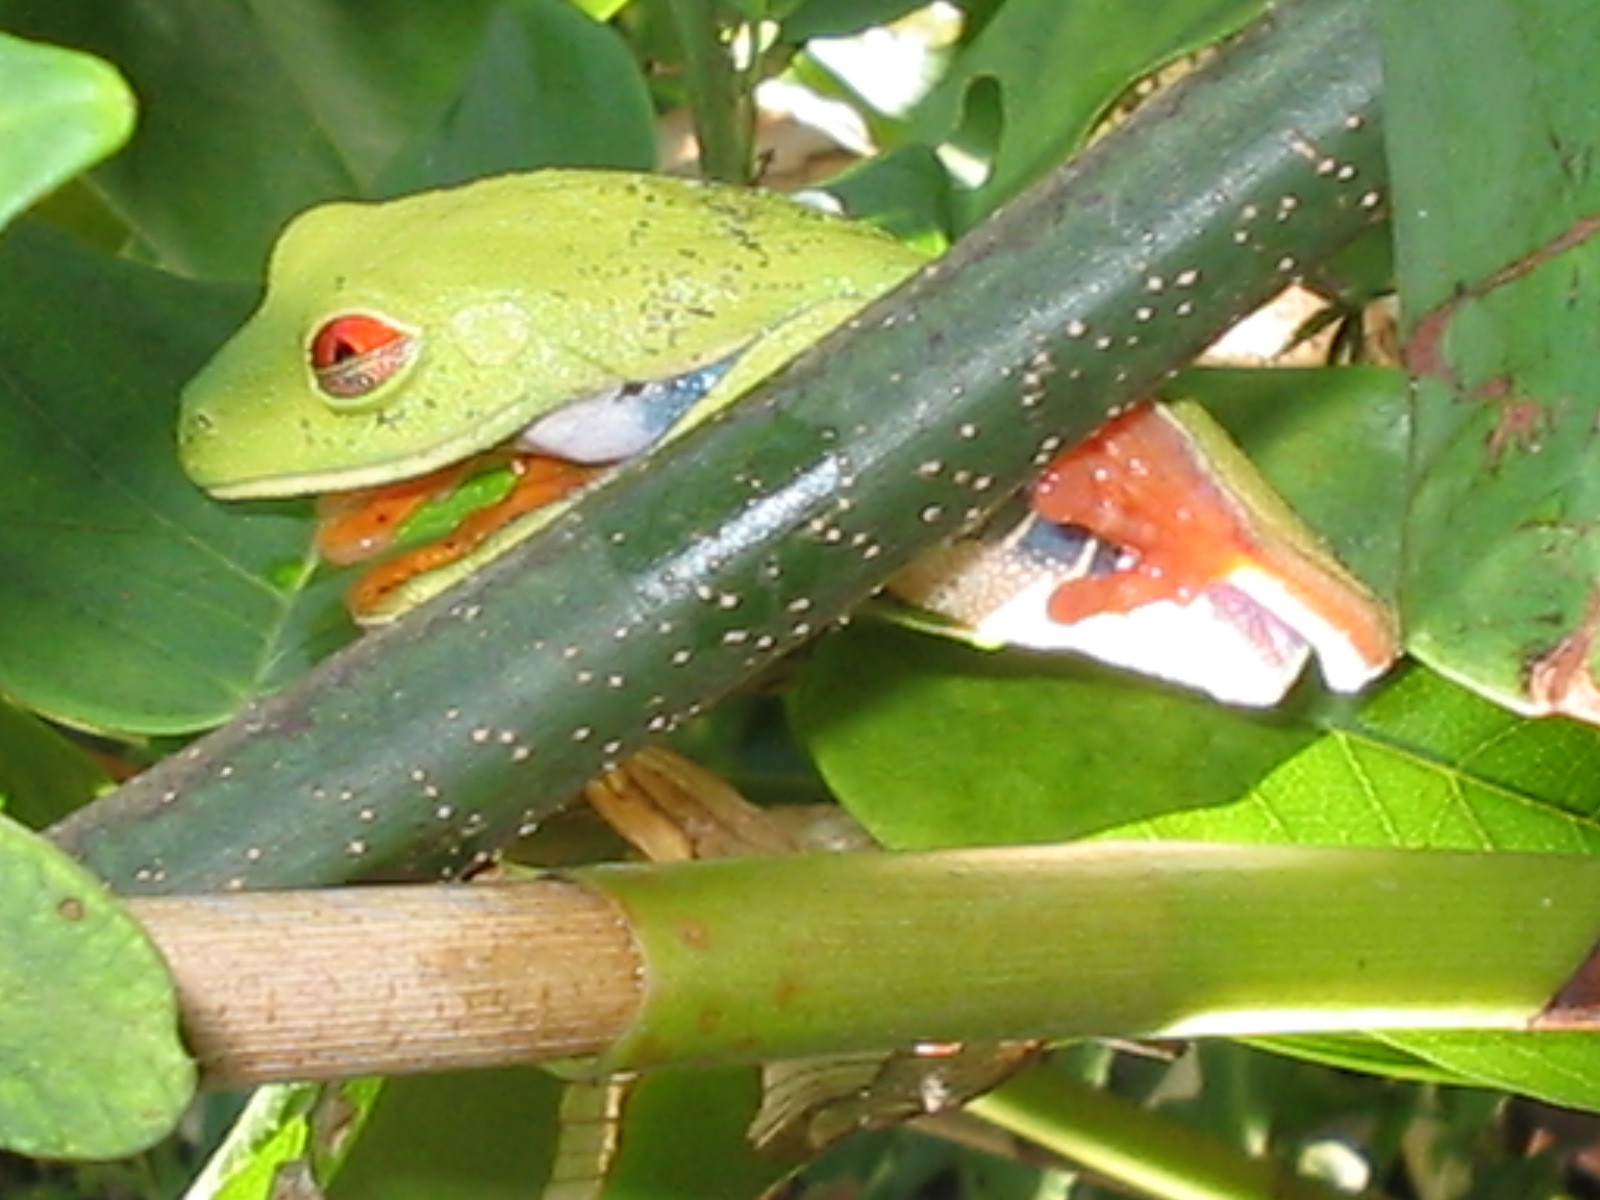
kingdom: Animalia
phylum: Chordata
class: Amphibia
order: Anura
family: Phyllomedusidae
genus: Agalychnis
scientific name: Agalychnis callidryas
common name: Red-eyed treefrog
